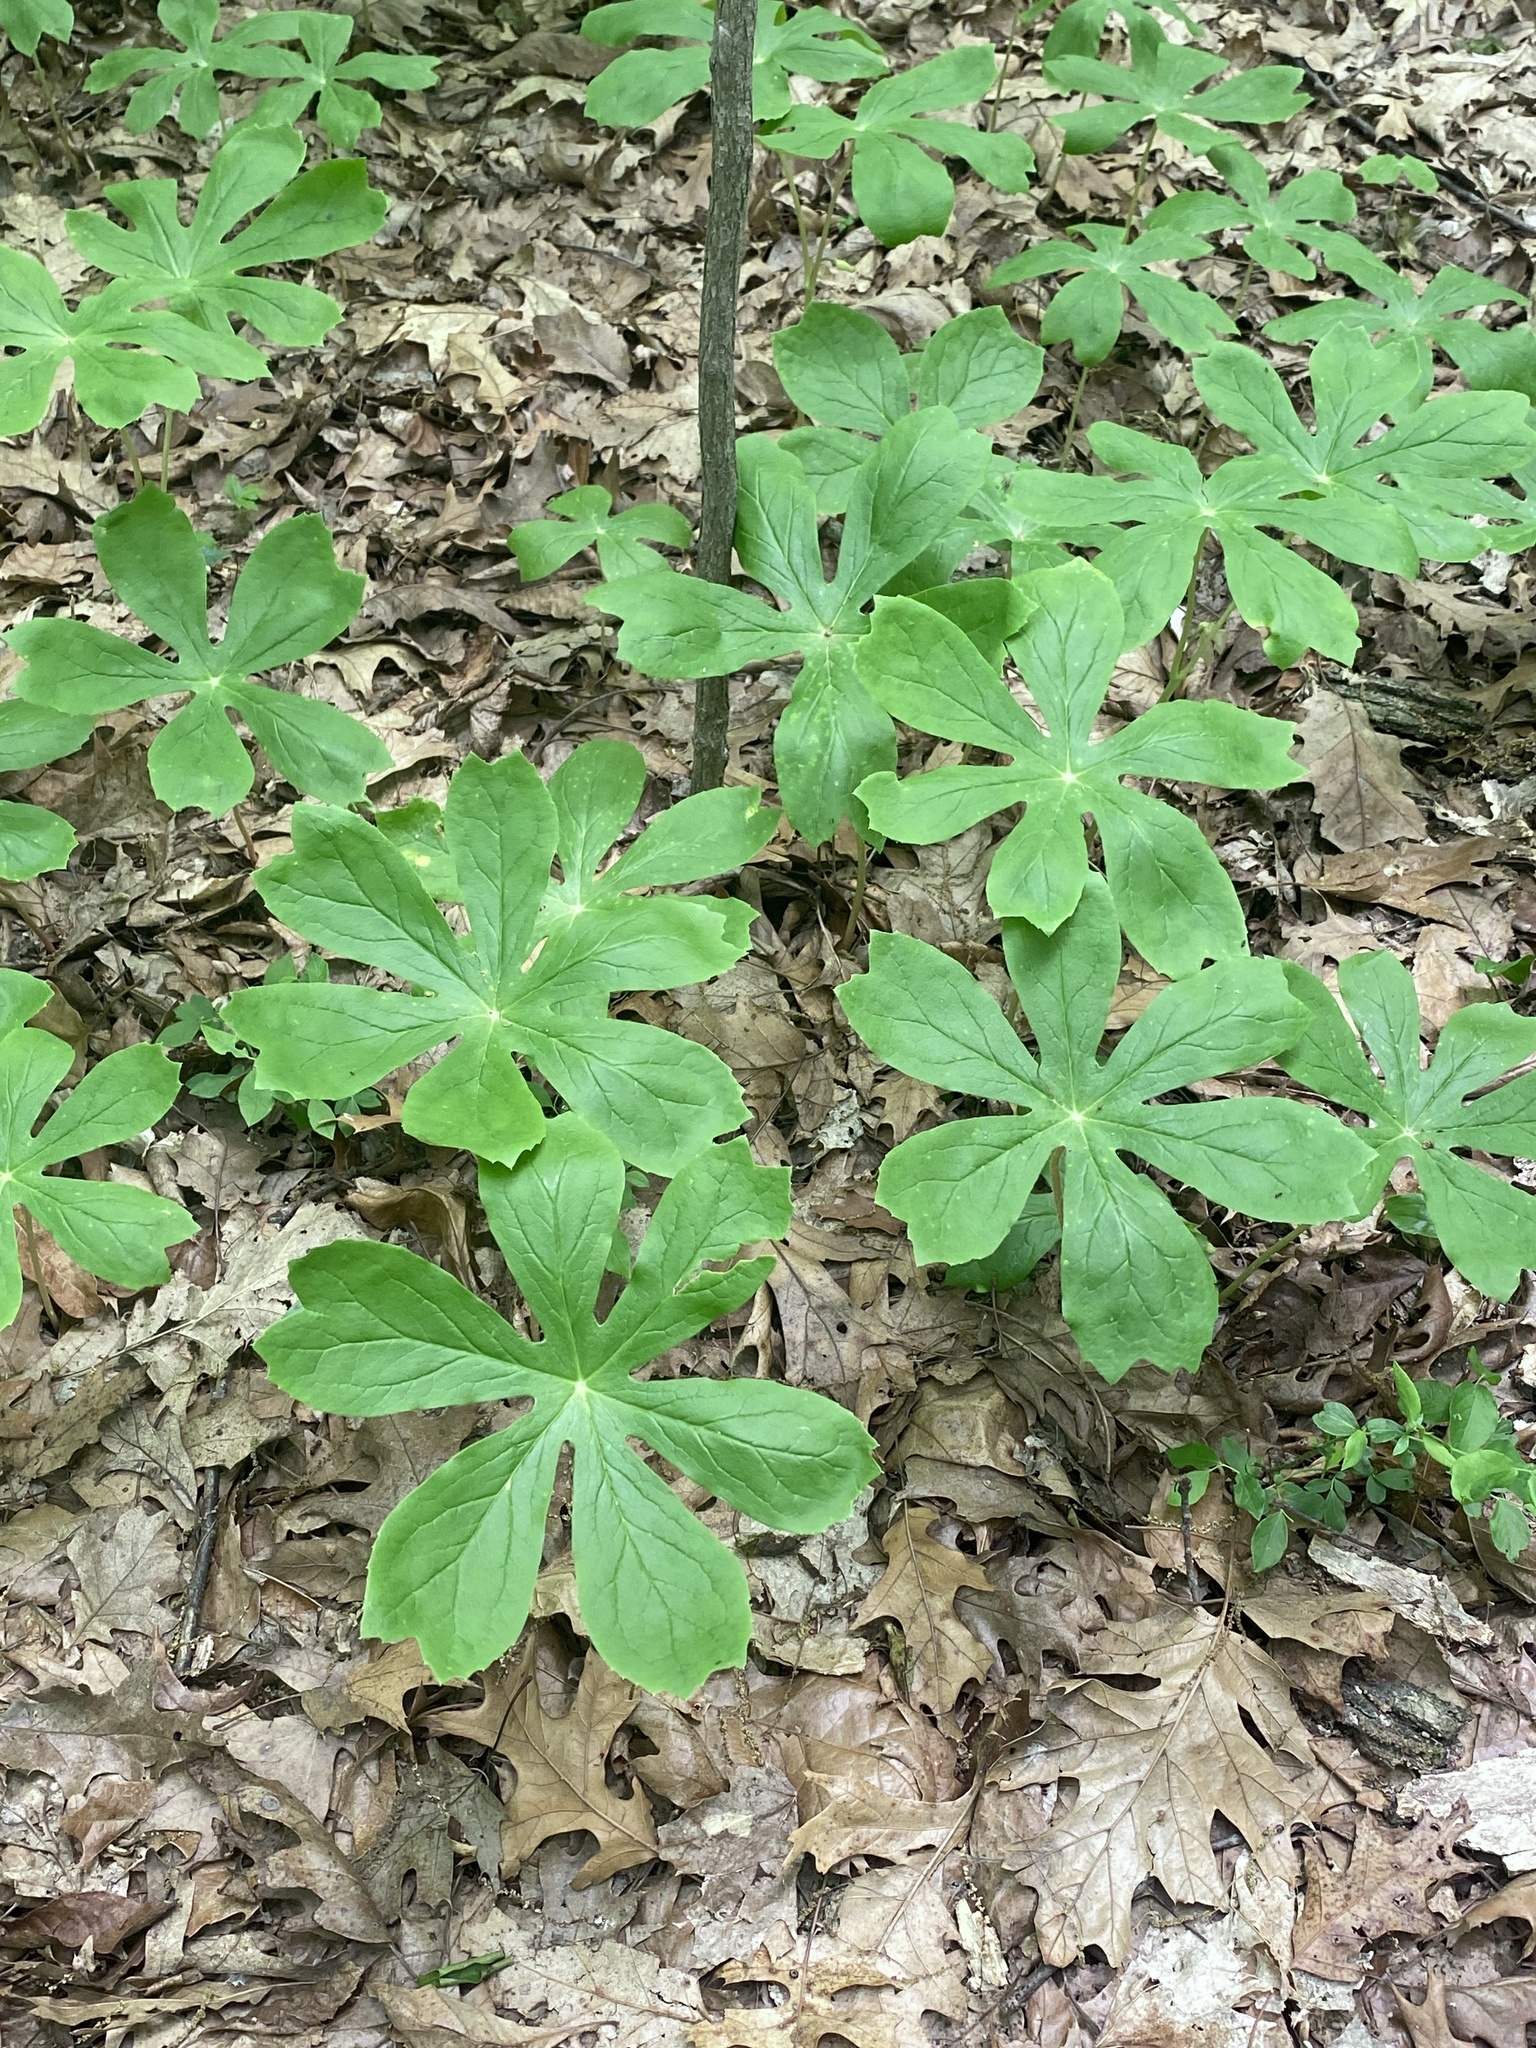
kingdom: Plantae
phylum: Tracheophyta
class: Magnoliopsida
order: Ranunculales
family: Berberidaceae
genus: Podophyllum
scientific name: Podophyllum peltatum
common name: Wild mandrake
